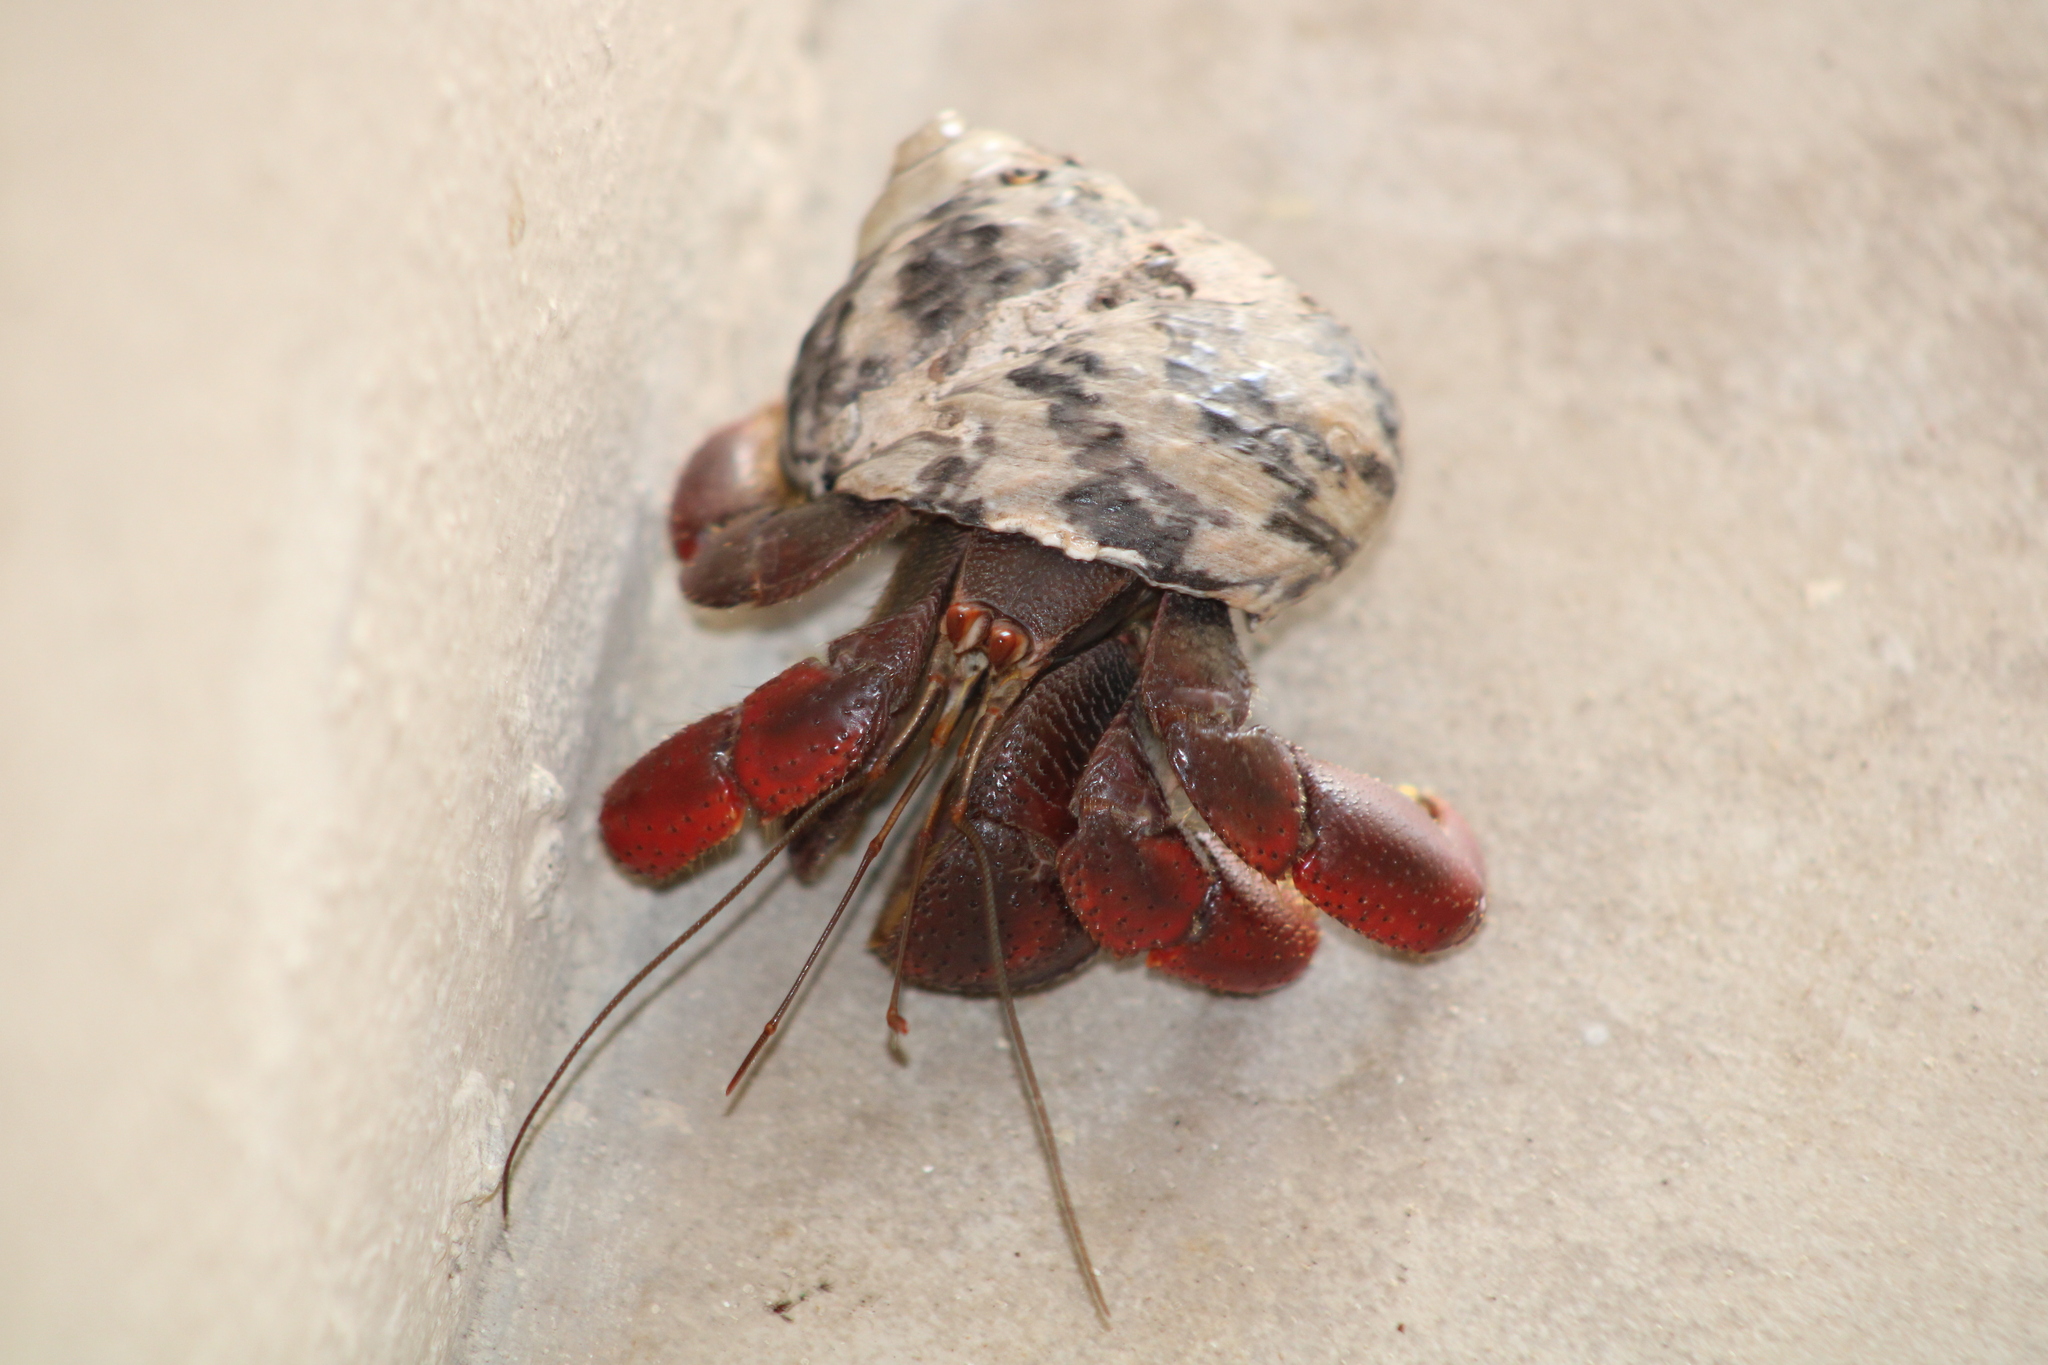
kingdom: Animalia
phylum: Arthropoda
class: Malacostraca
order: Decapoda
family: Coenobitidae
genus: Coenobita
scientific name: Coenobita clypeatus
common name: Caribbean hermit crab
